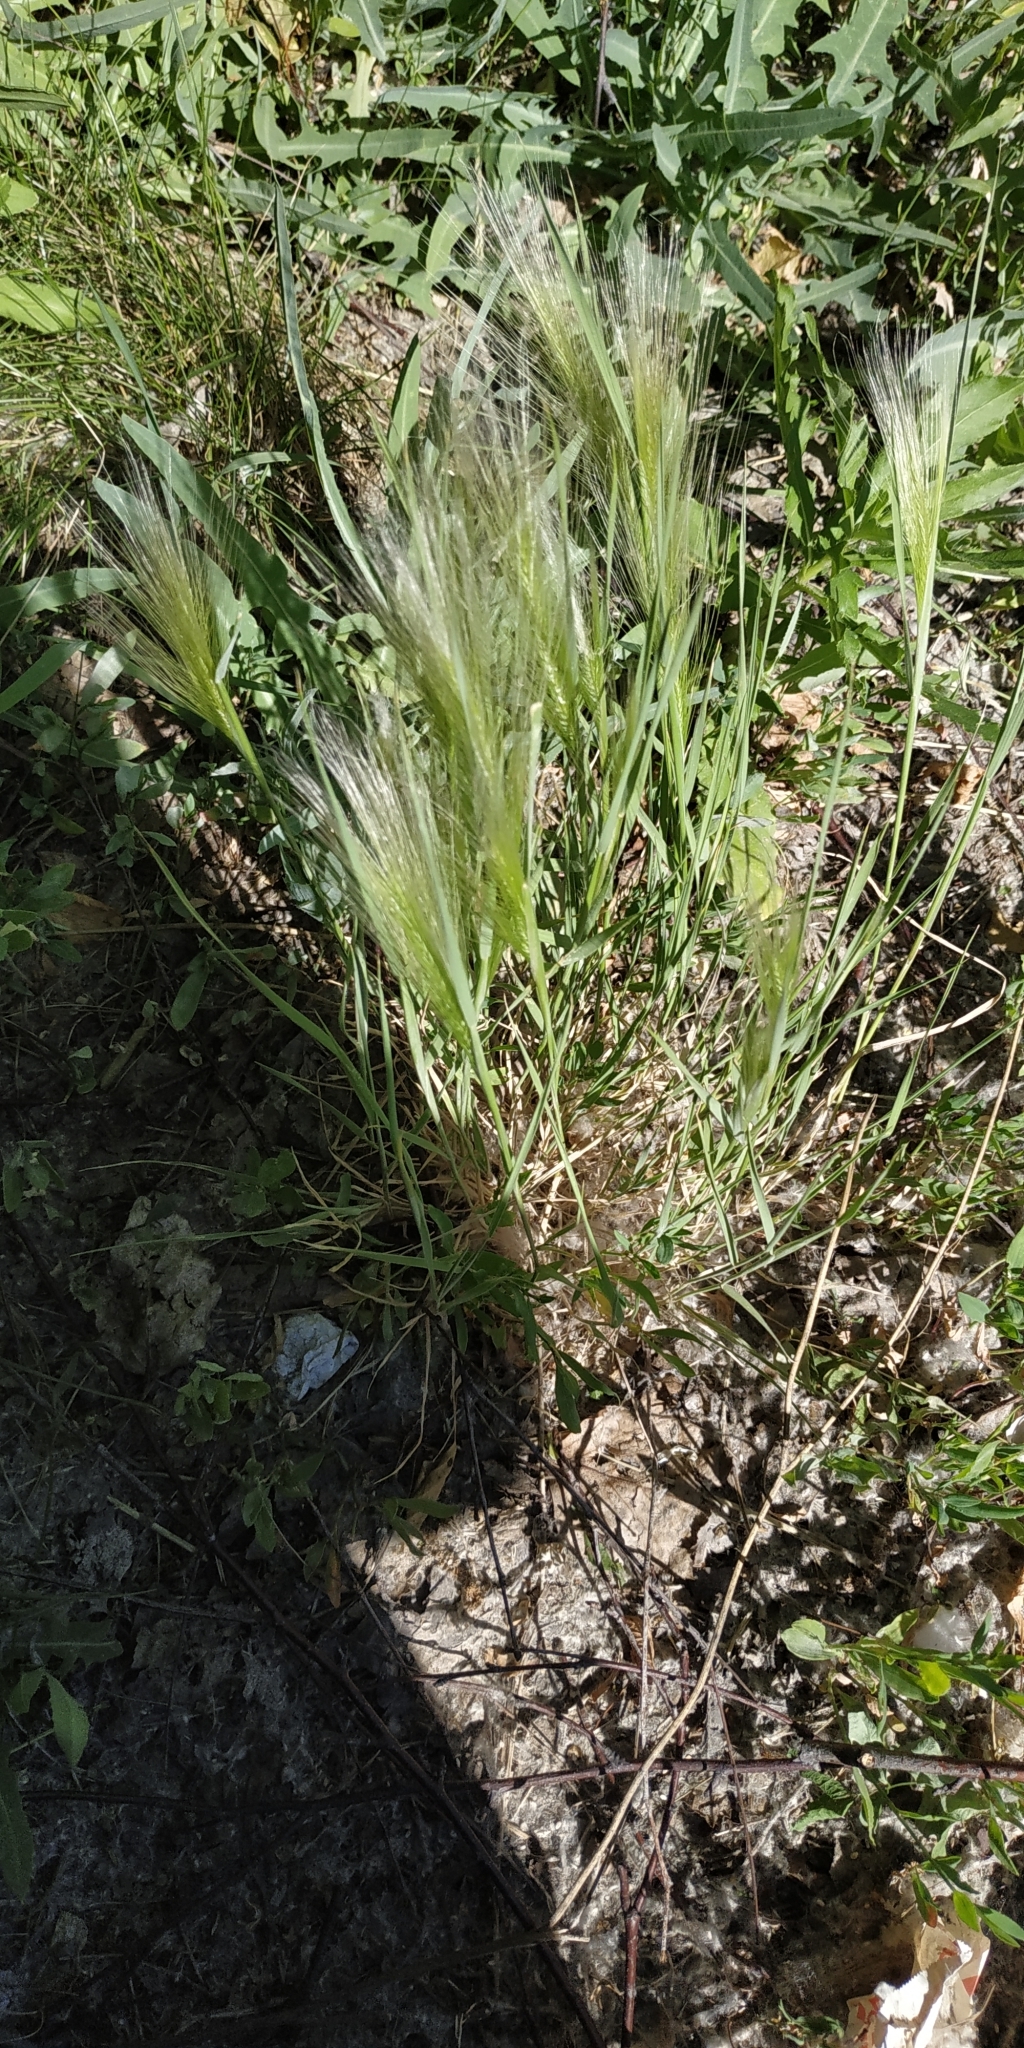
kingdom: Plantae
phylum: Tracheophyta
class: Liliopsida
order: Poales
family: Poaceae
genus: Hordeum
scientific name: Hordeum jubatum
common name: Foxtail barley
